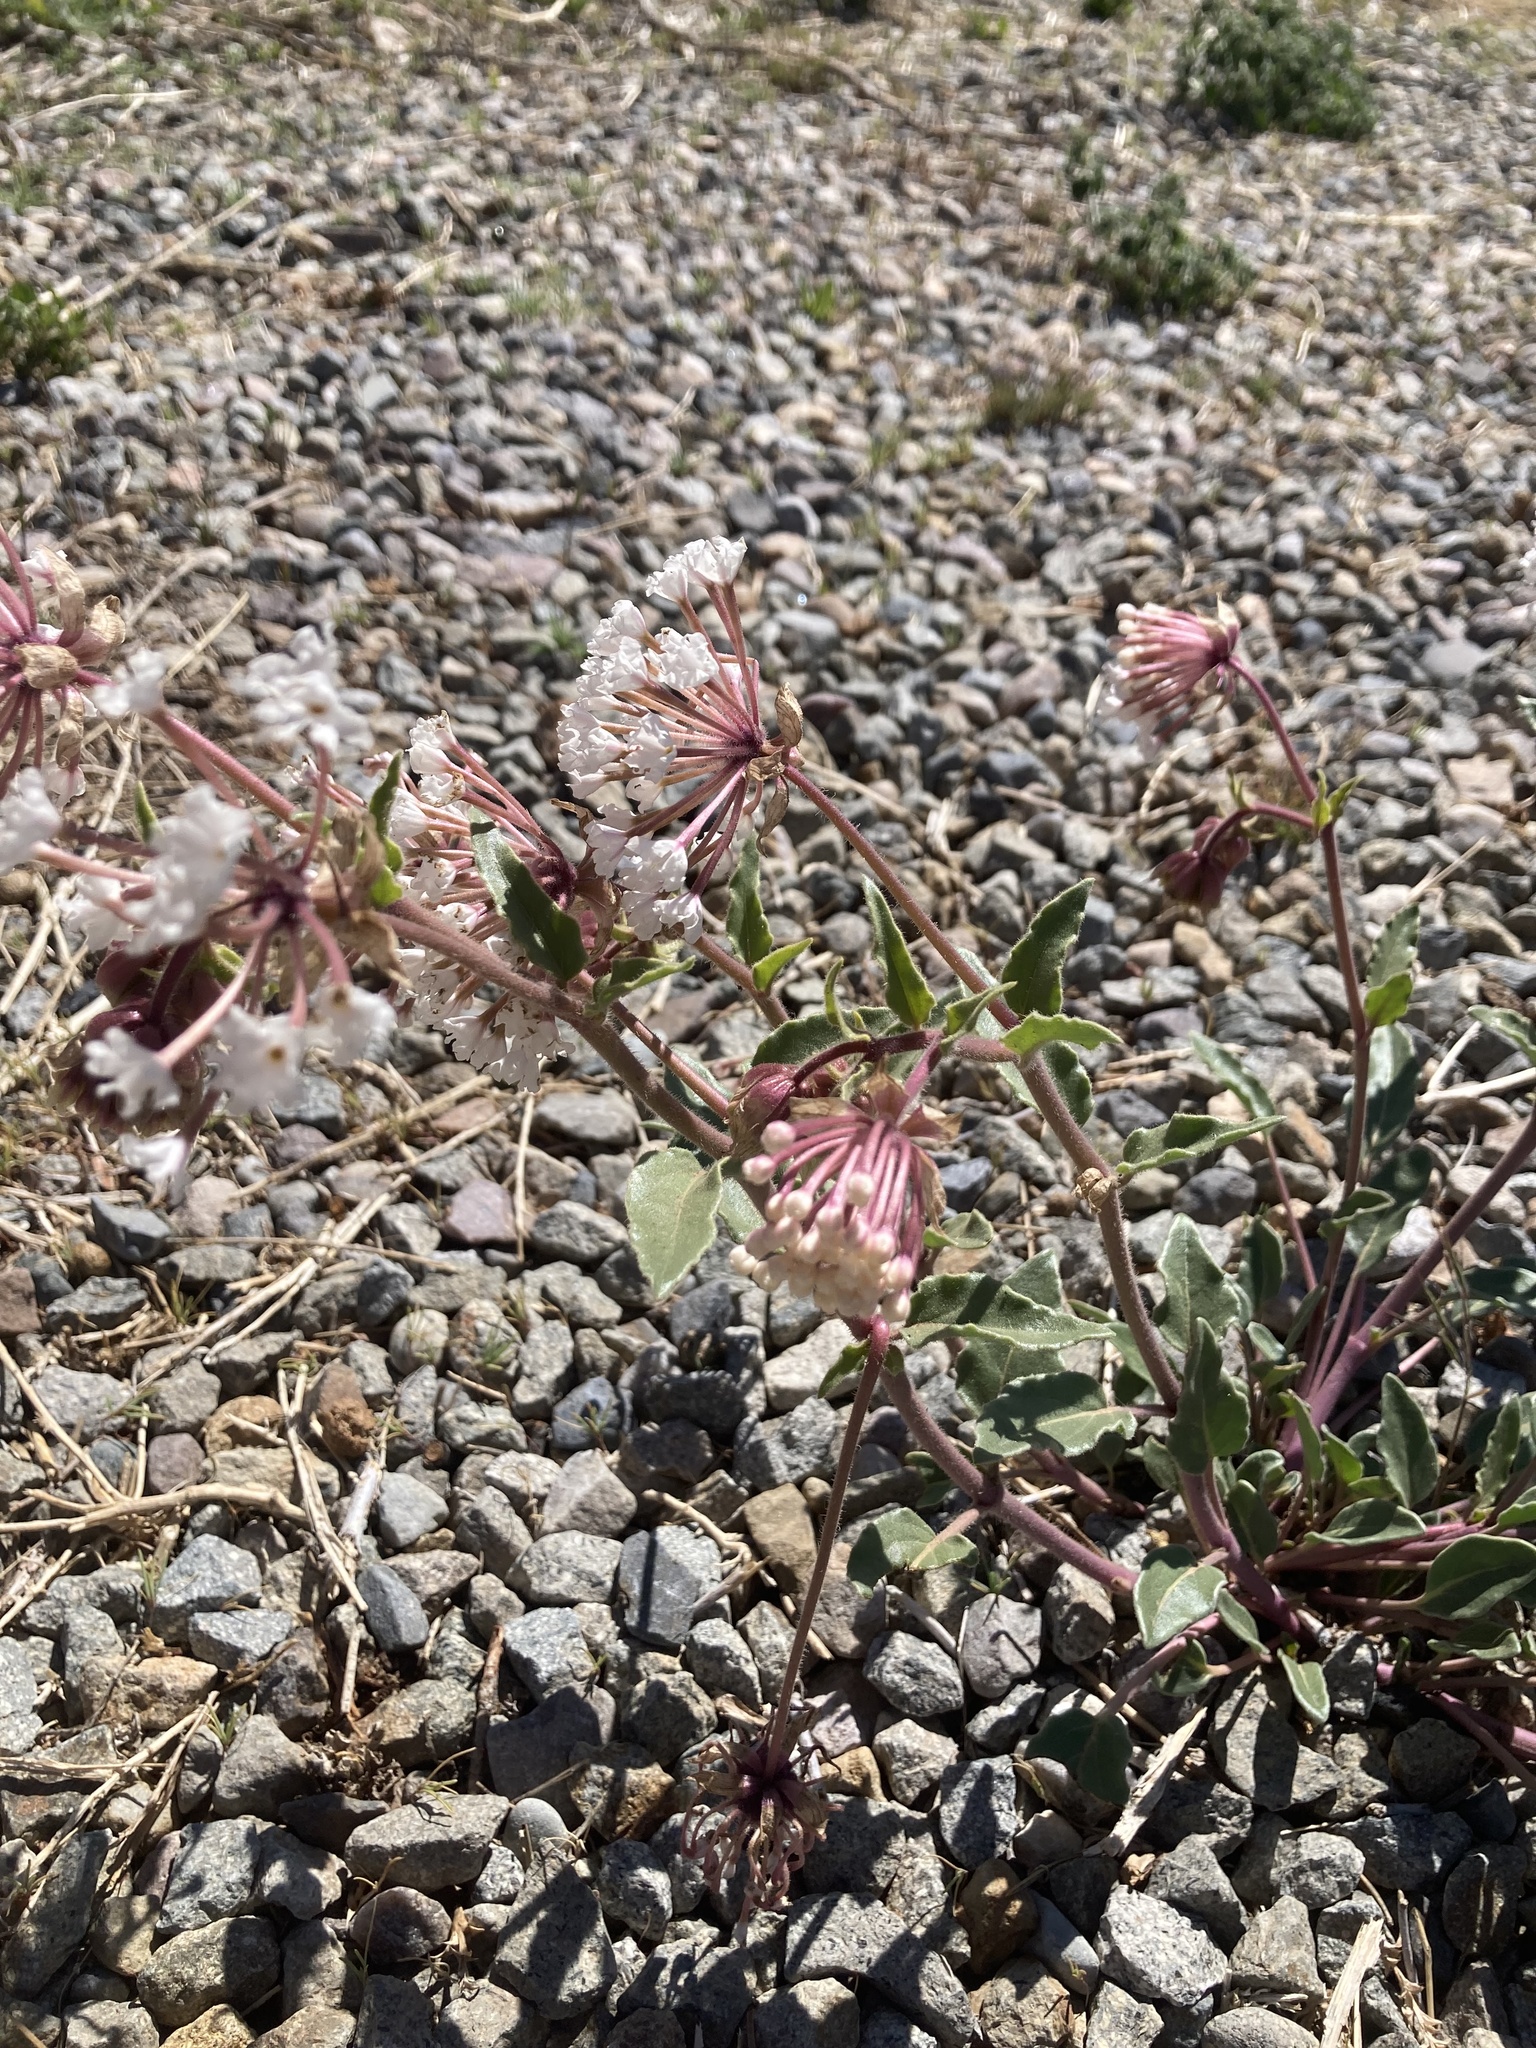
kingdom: Plantae
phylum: Tracheophyta
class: Magnoliopsida
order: Caryophyllales
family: Nyctaginaceae
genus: Abronia
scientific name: Abronia fragrans
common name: Fragrant sand-verbena
